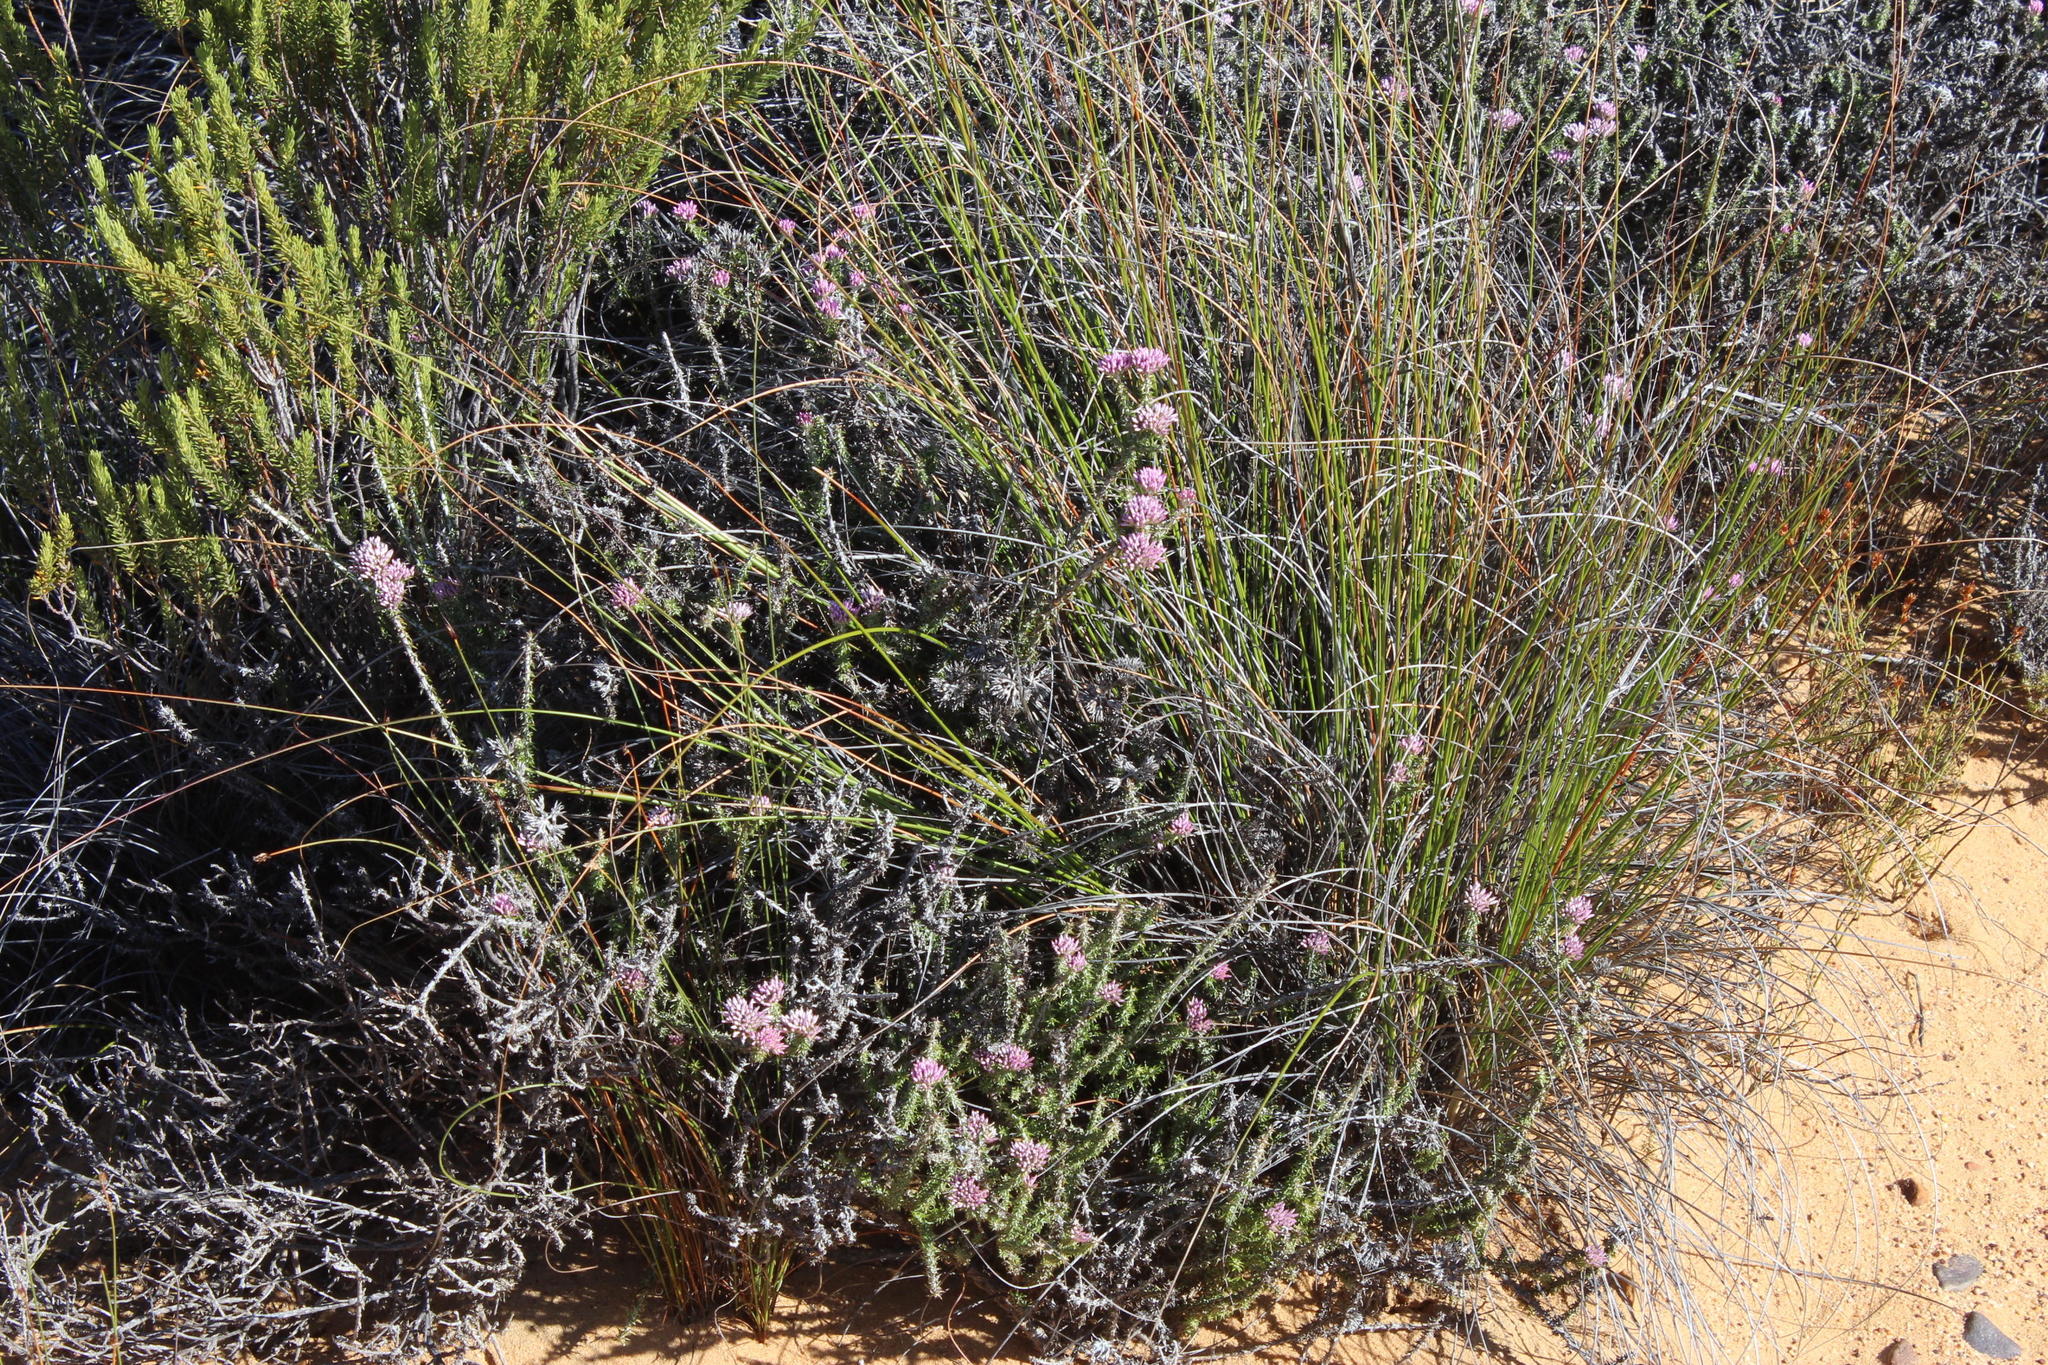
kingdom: Plantae
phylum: Tracheophyta
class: Magnoliopsida
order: Asterales
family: Asteraceae
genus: Metalasia
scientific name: Metalasia albescens
